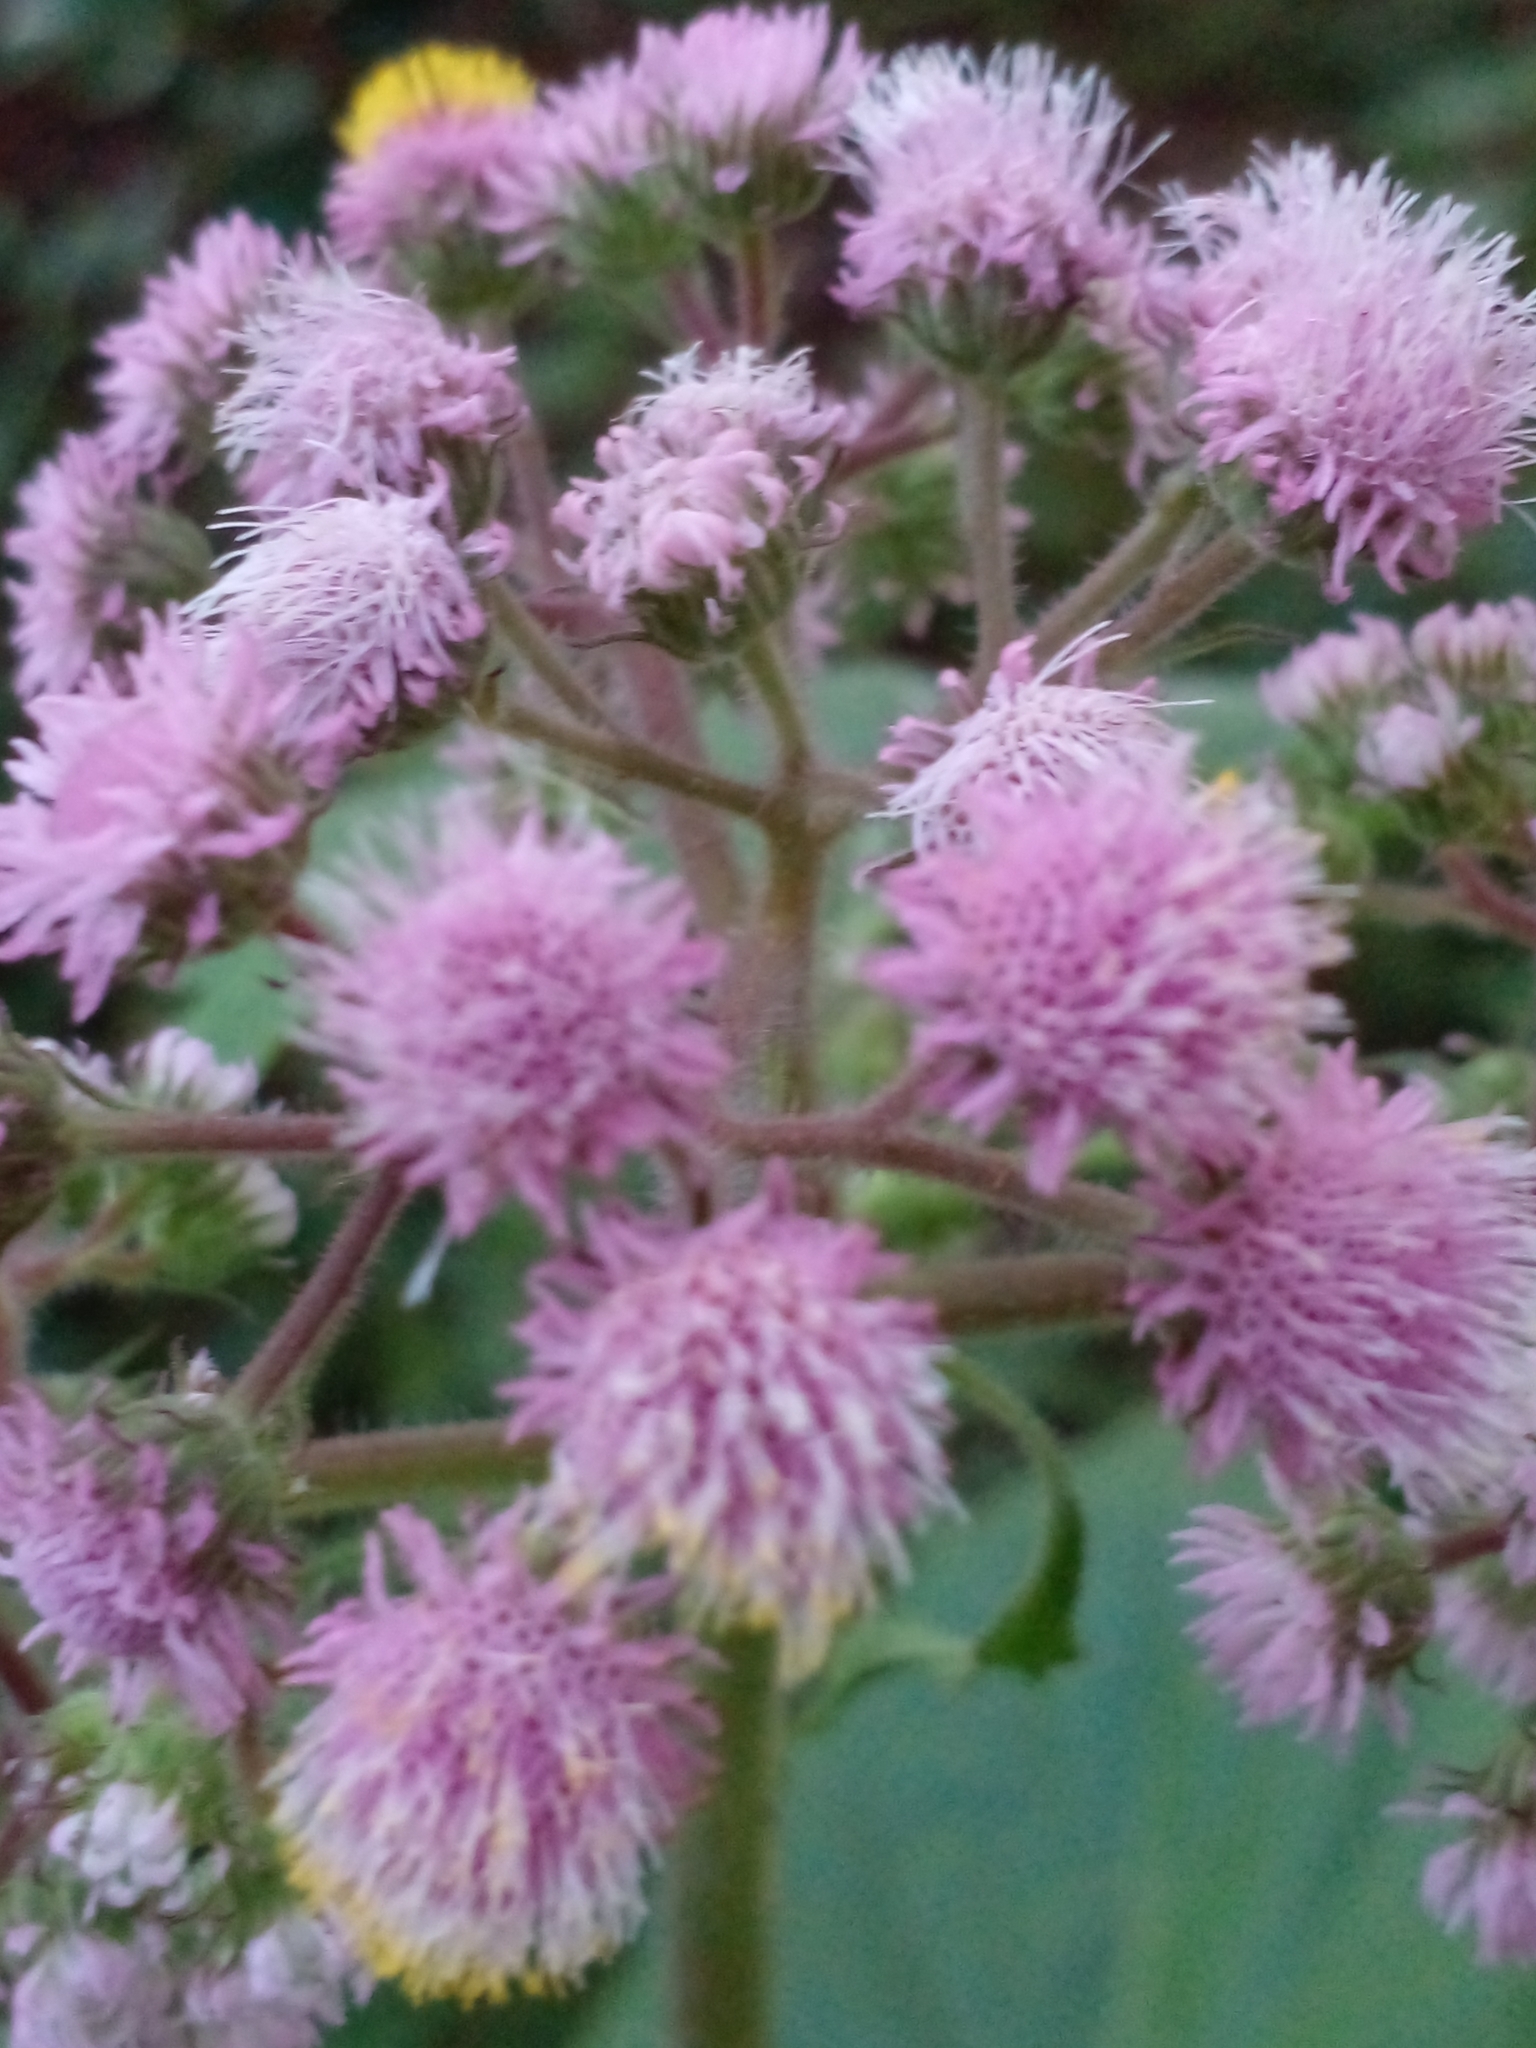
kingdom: Plantae
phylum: Tracheophyta
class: Magnoliopsida
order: Asterales
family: Asteraceae
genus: Urolepis
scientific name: Urolepis hecatantha
